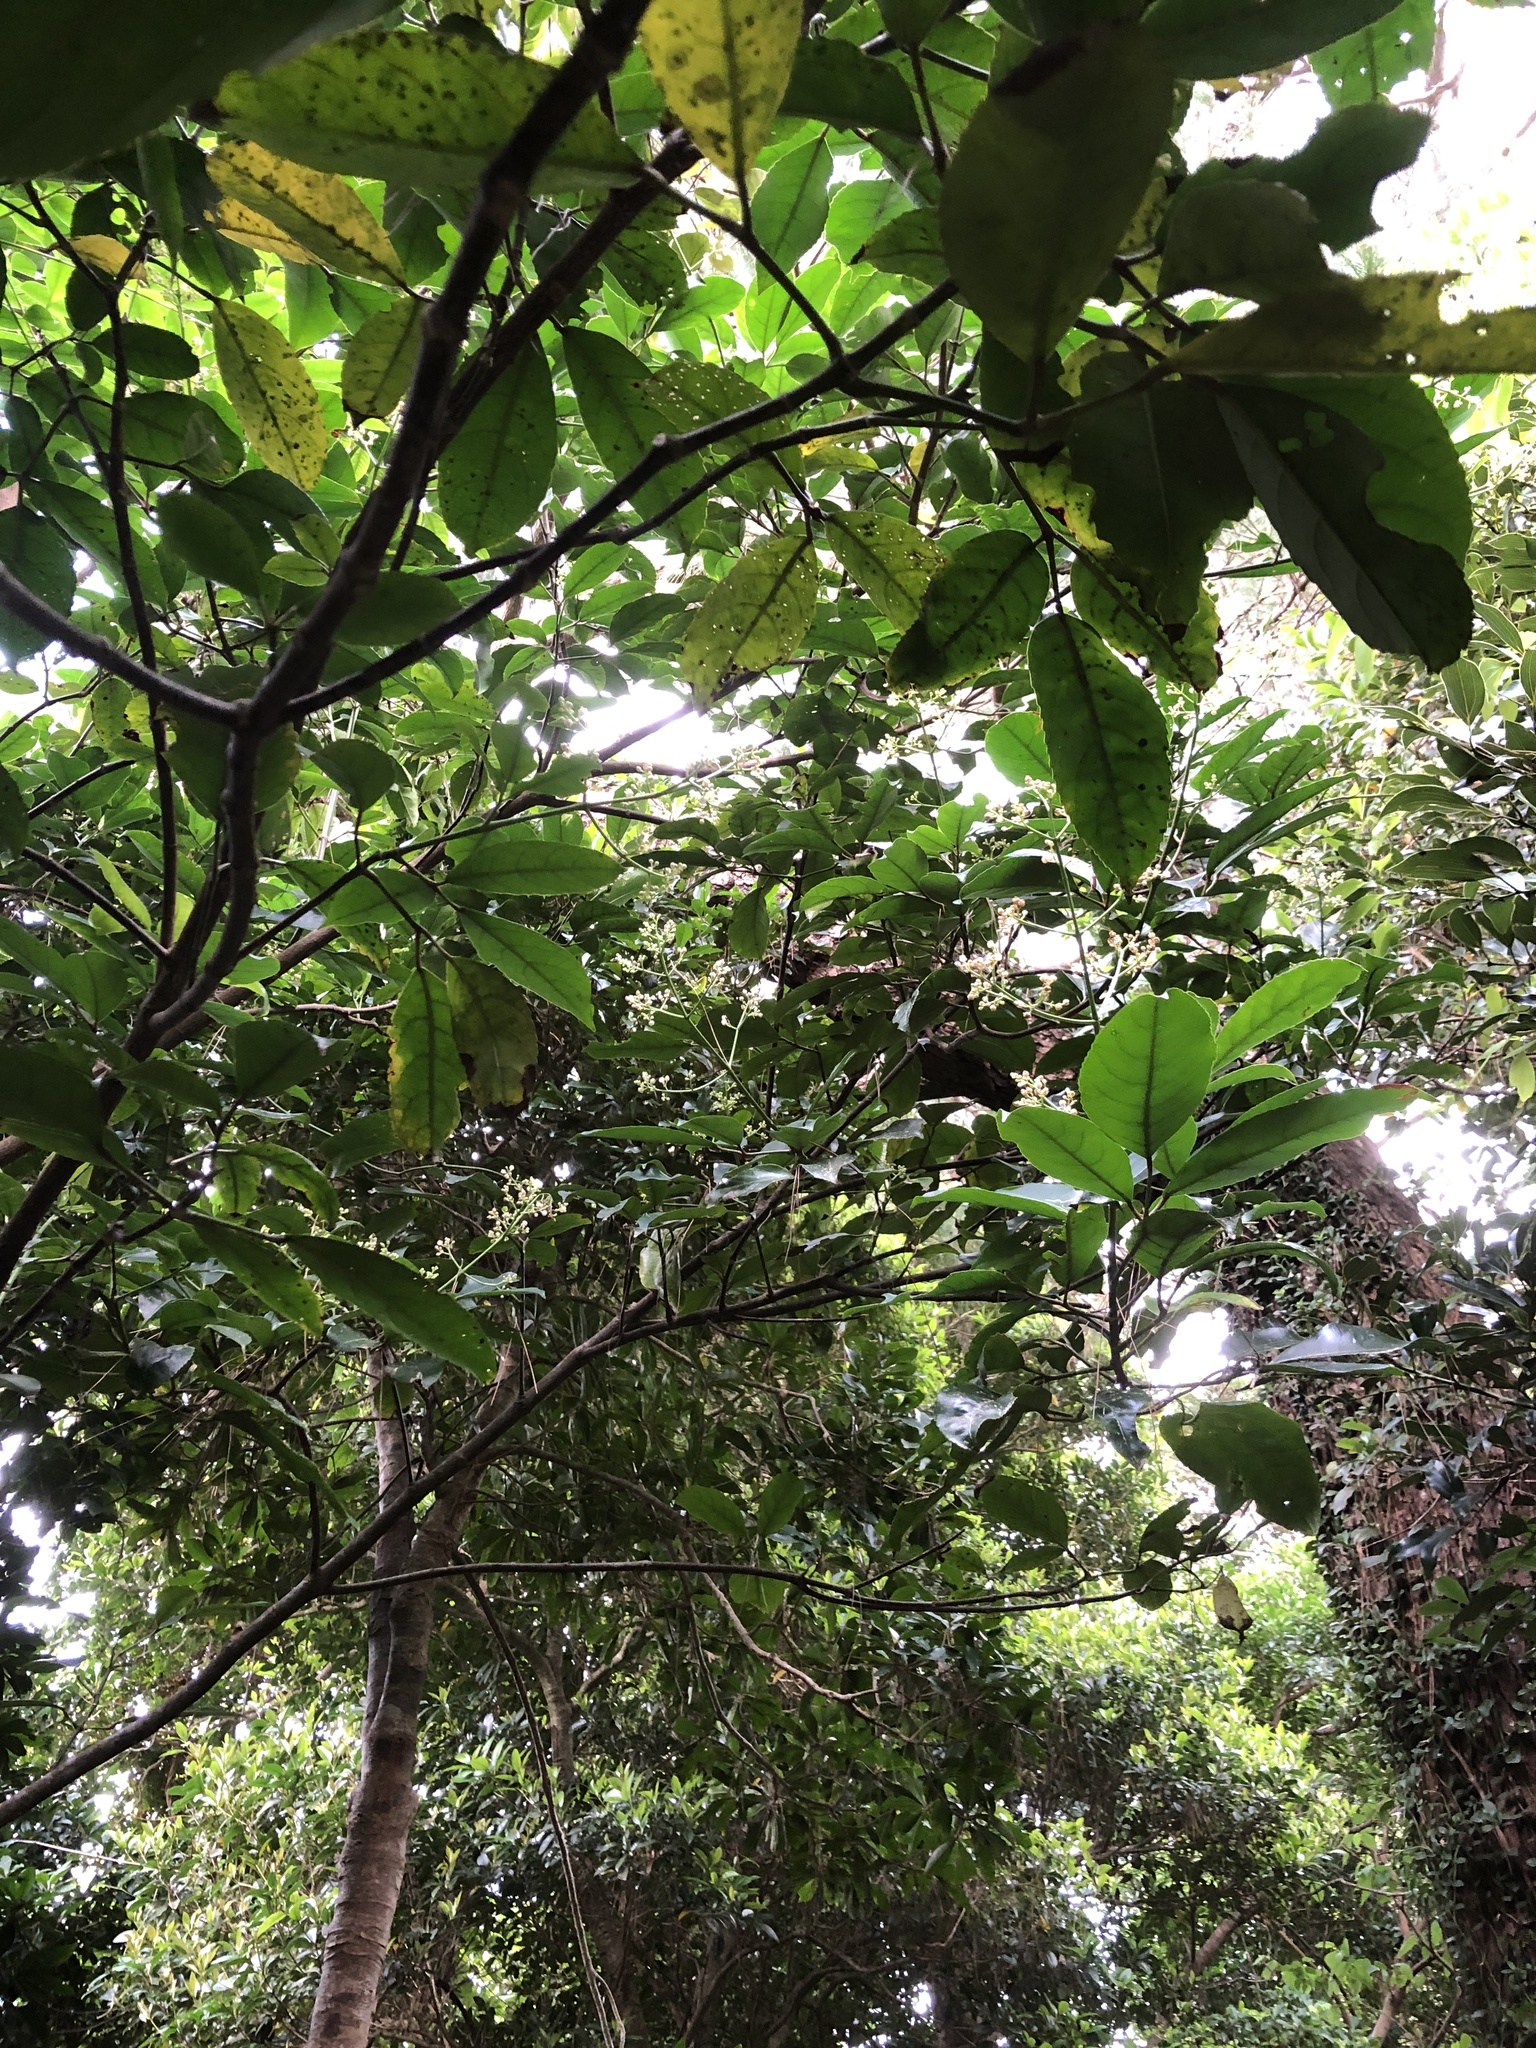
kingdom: Plantae
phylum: Tracheophyta
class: Magnoliopsida
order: Crossosomatales
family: Staphyleaceae
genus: Turpinia
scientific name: Turpinia ternata
